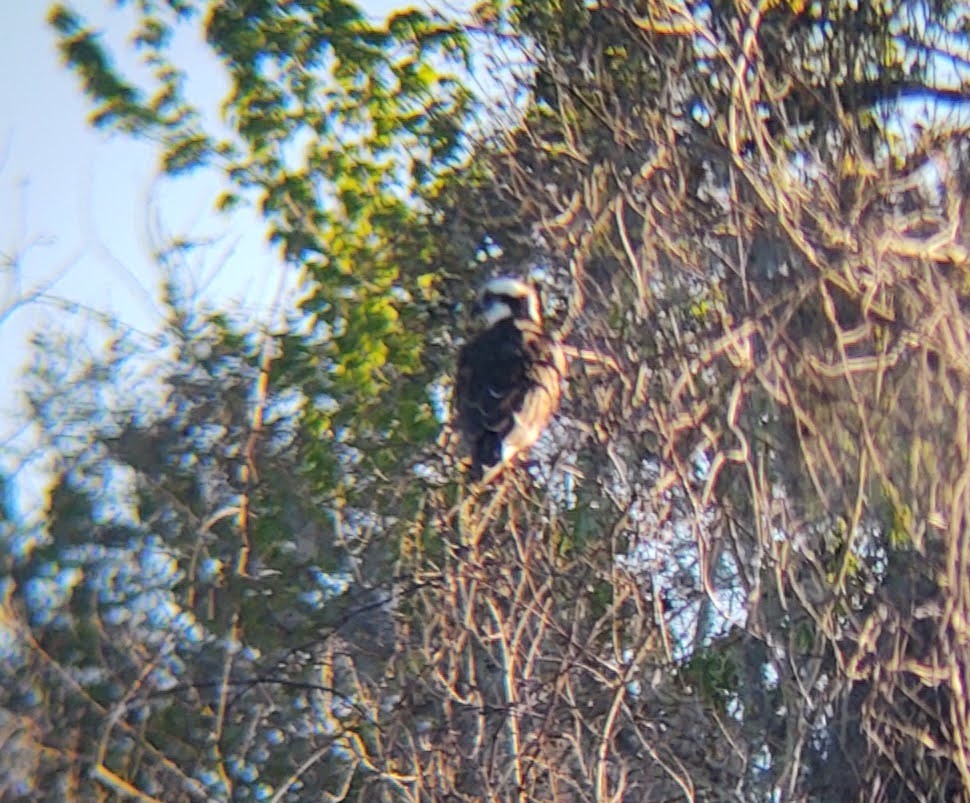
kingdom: Animalia
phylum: Chordata
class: Aves
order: Accipitriformes
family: Pandionidae
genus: Pandion
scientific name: Pandion haliaetus
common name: Osprey
